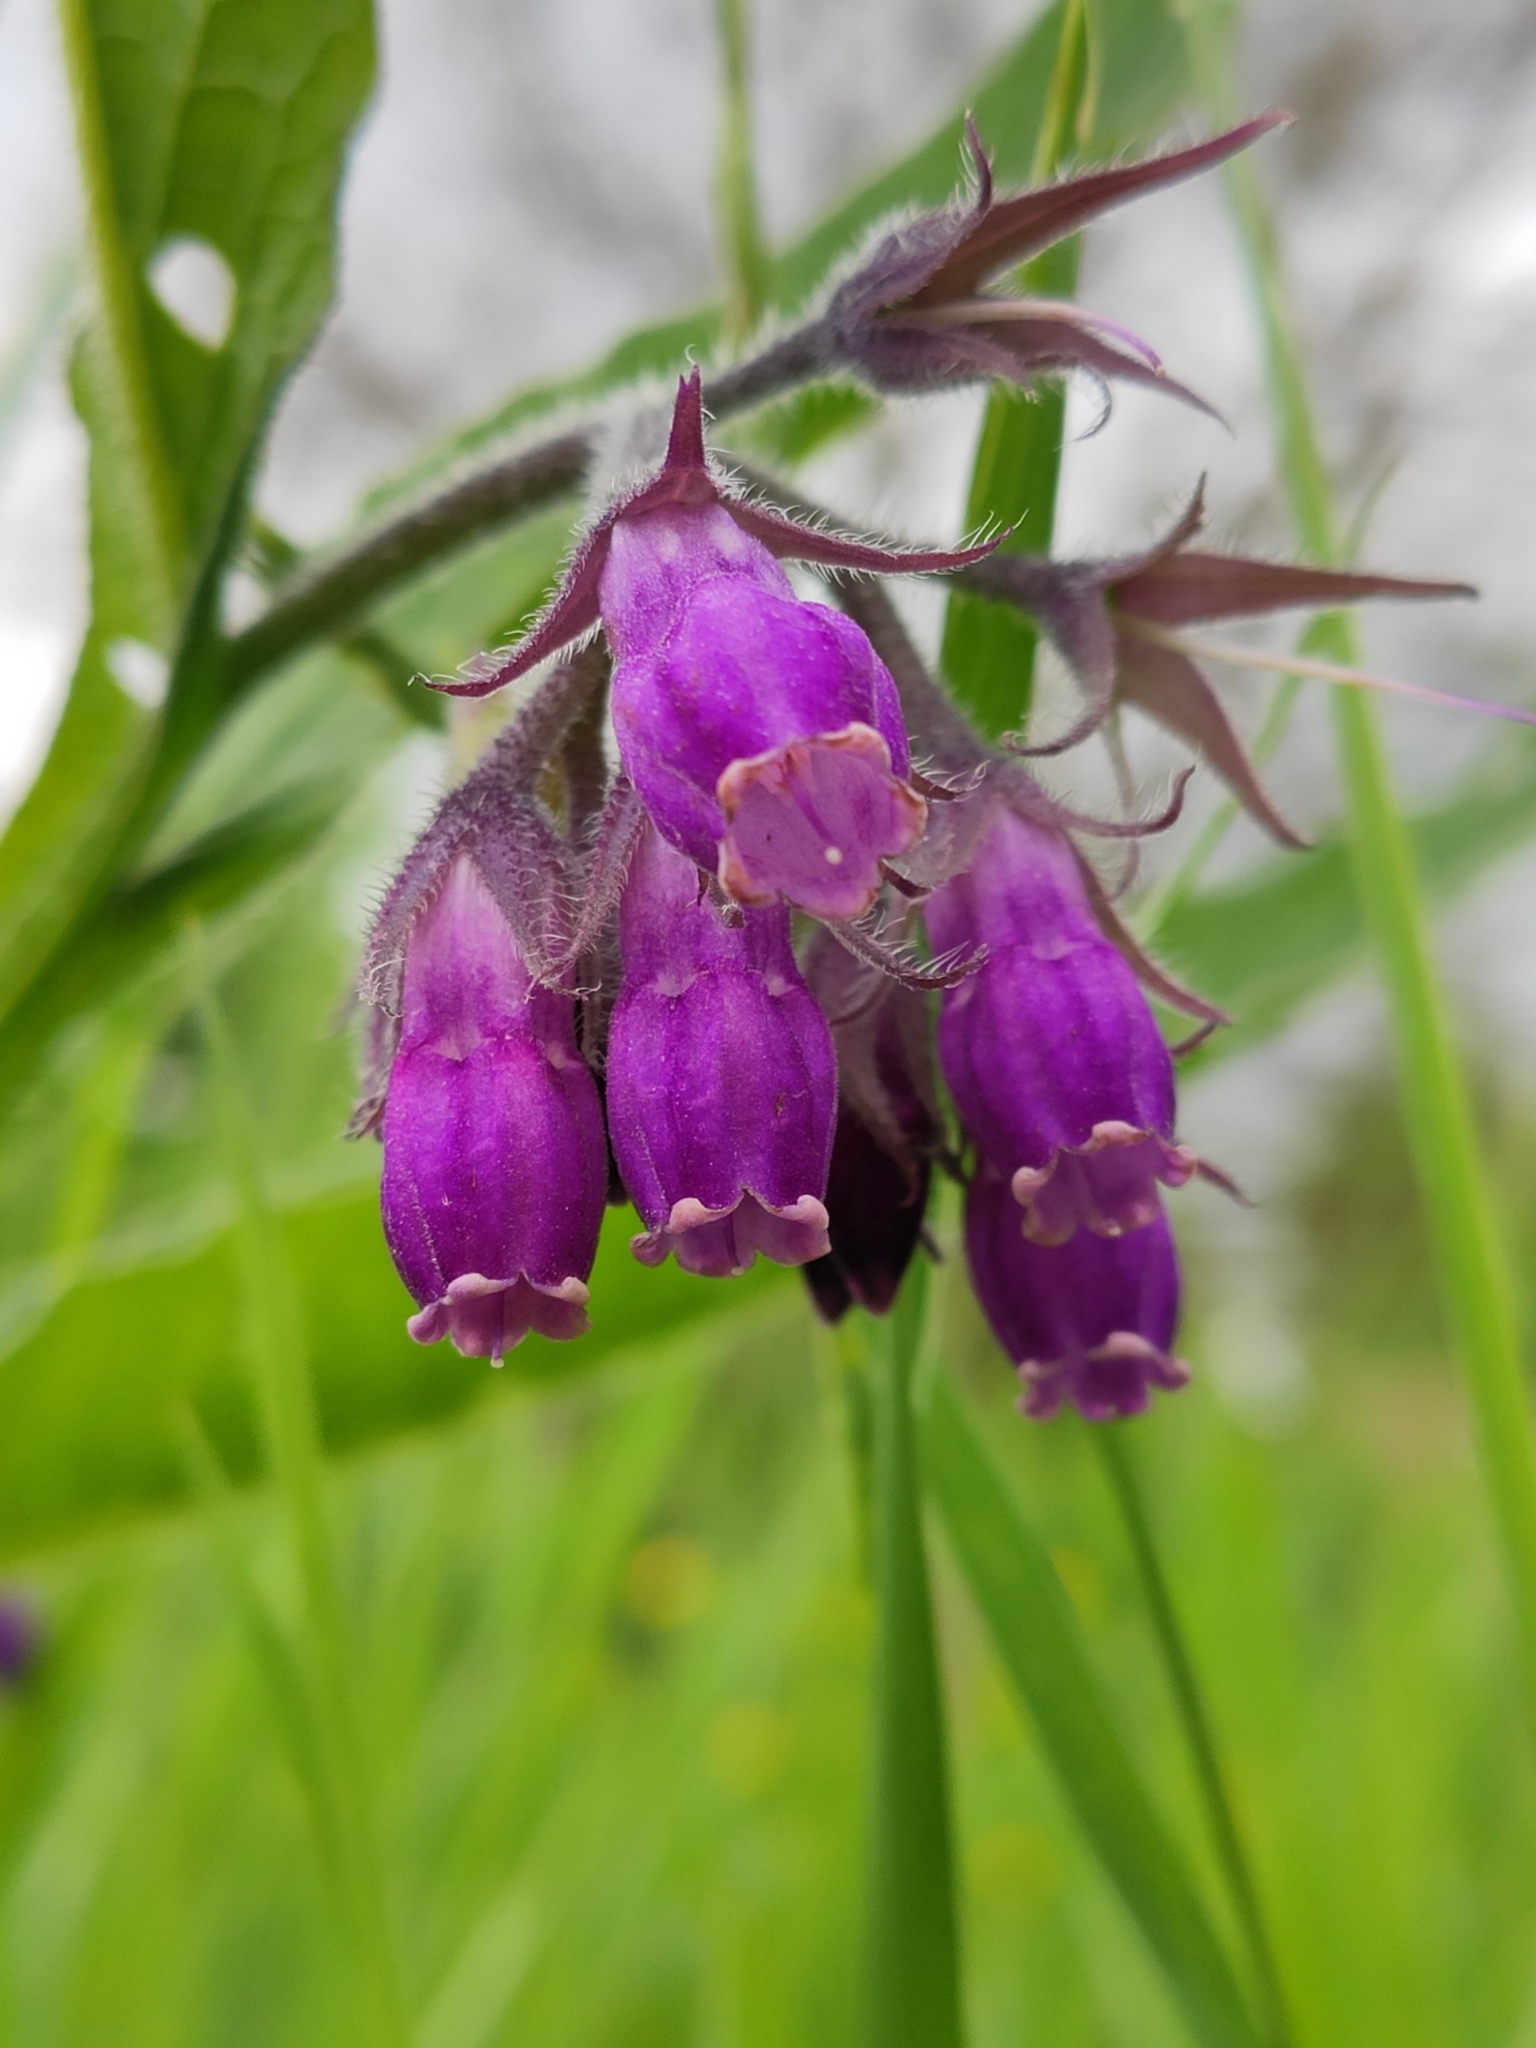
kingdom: Plantae
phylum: Tracheophyta
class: Magnoliopsida
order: Boraginales
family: Boraginaceae
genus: Symphytum
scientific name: Symphytum officinale
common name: Common comfrey
